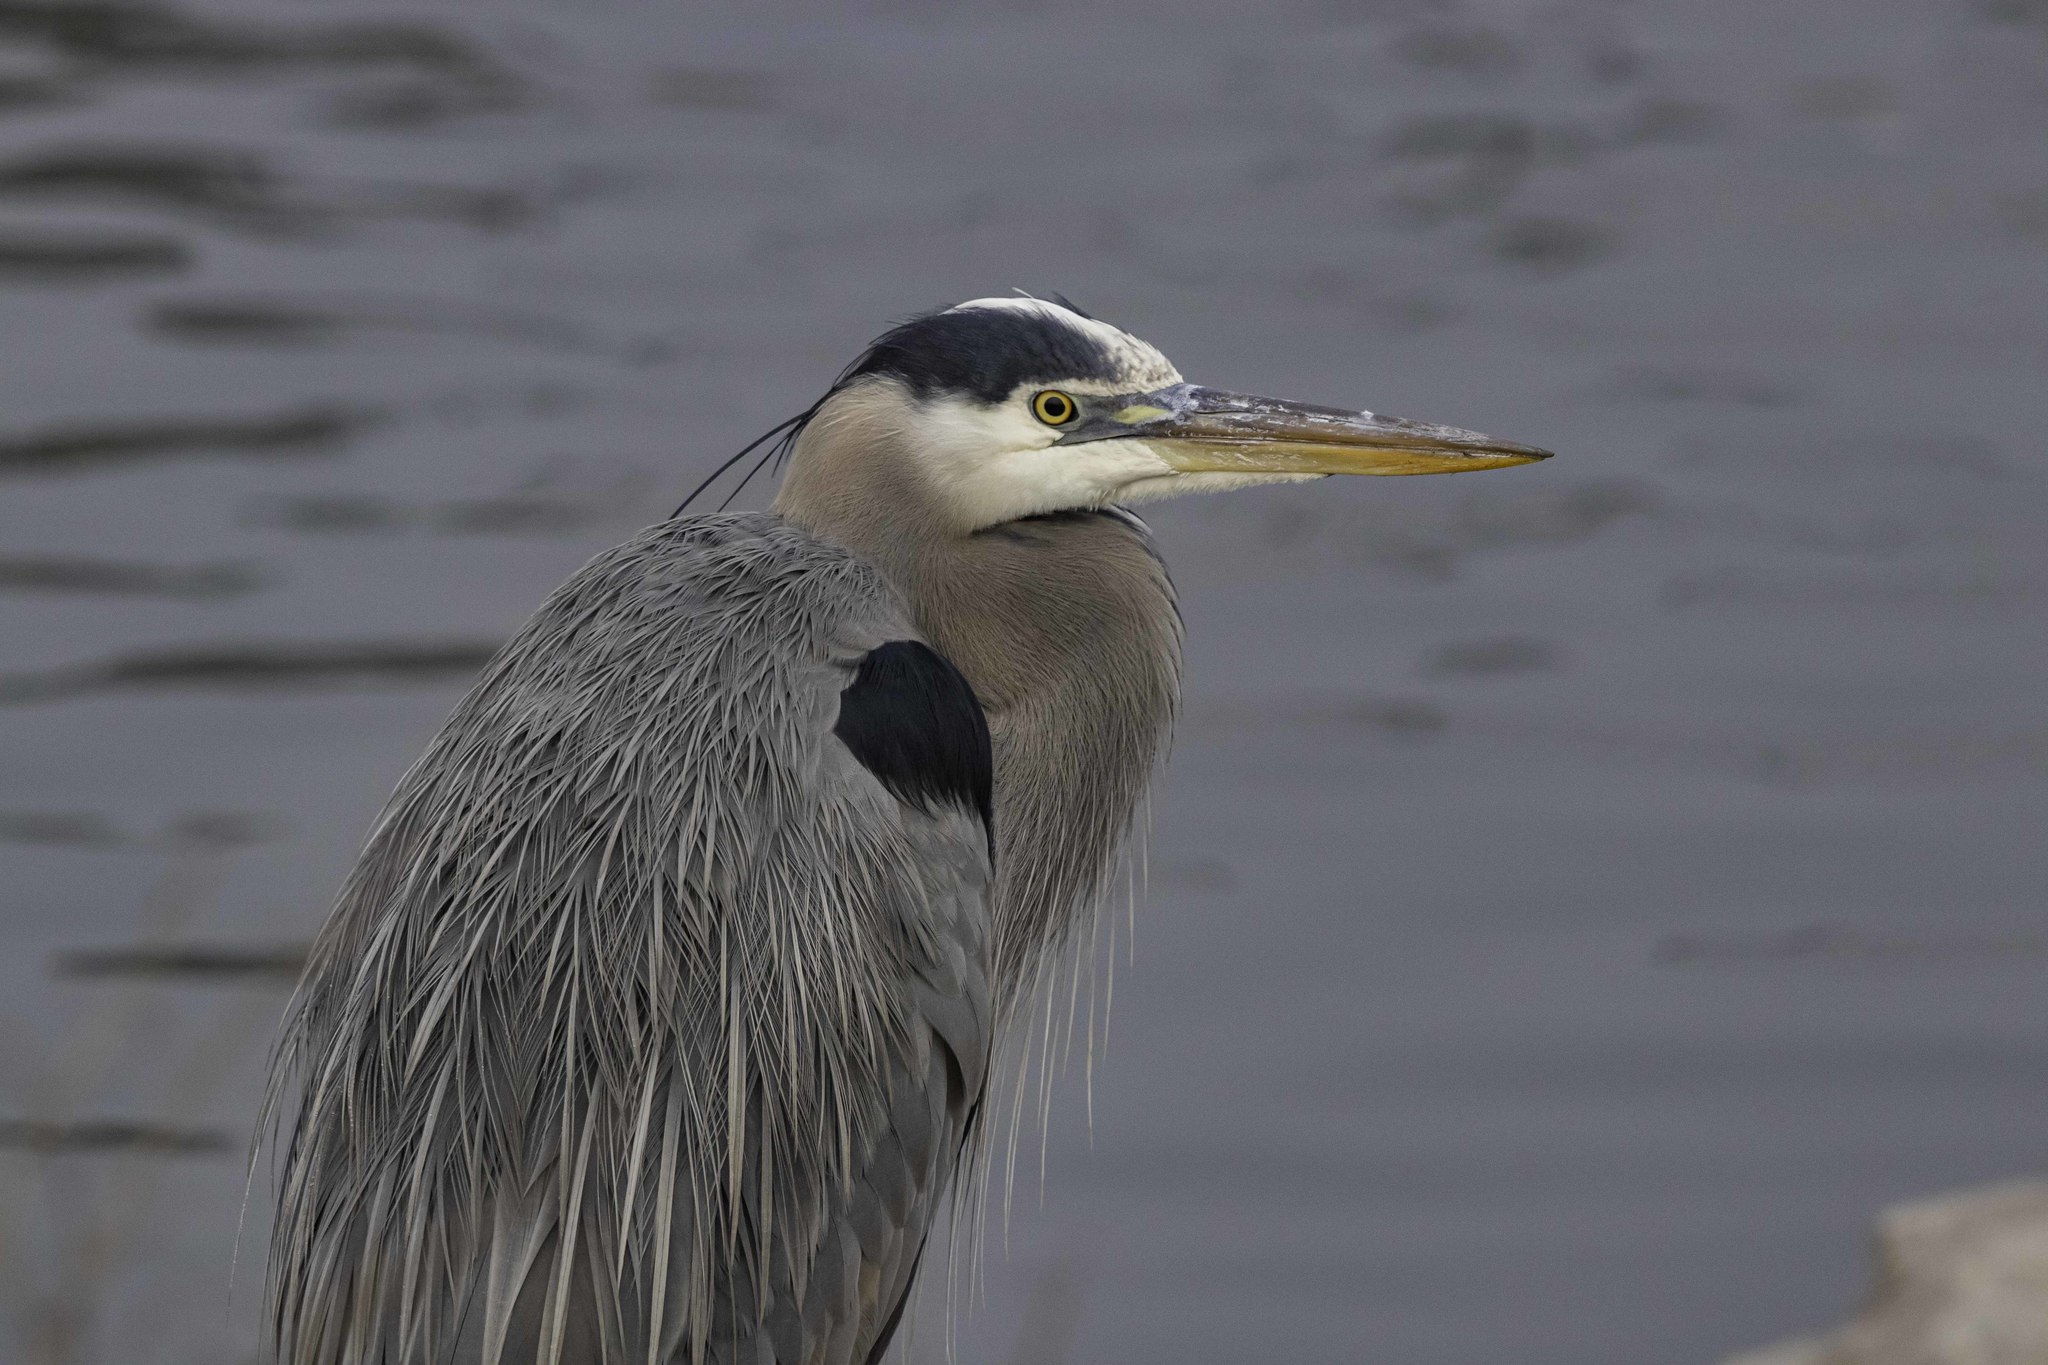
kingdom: Animalia
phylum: Chordata
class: Aves
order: Pelecaniformes
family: Ardeidae
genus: Ardea
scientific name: Ardea herodias
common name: Great blue heron
